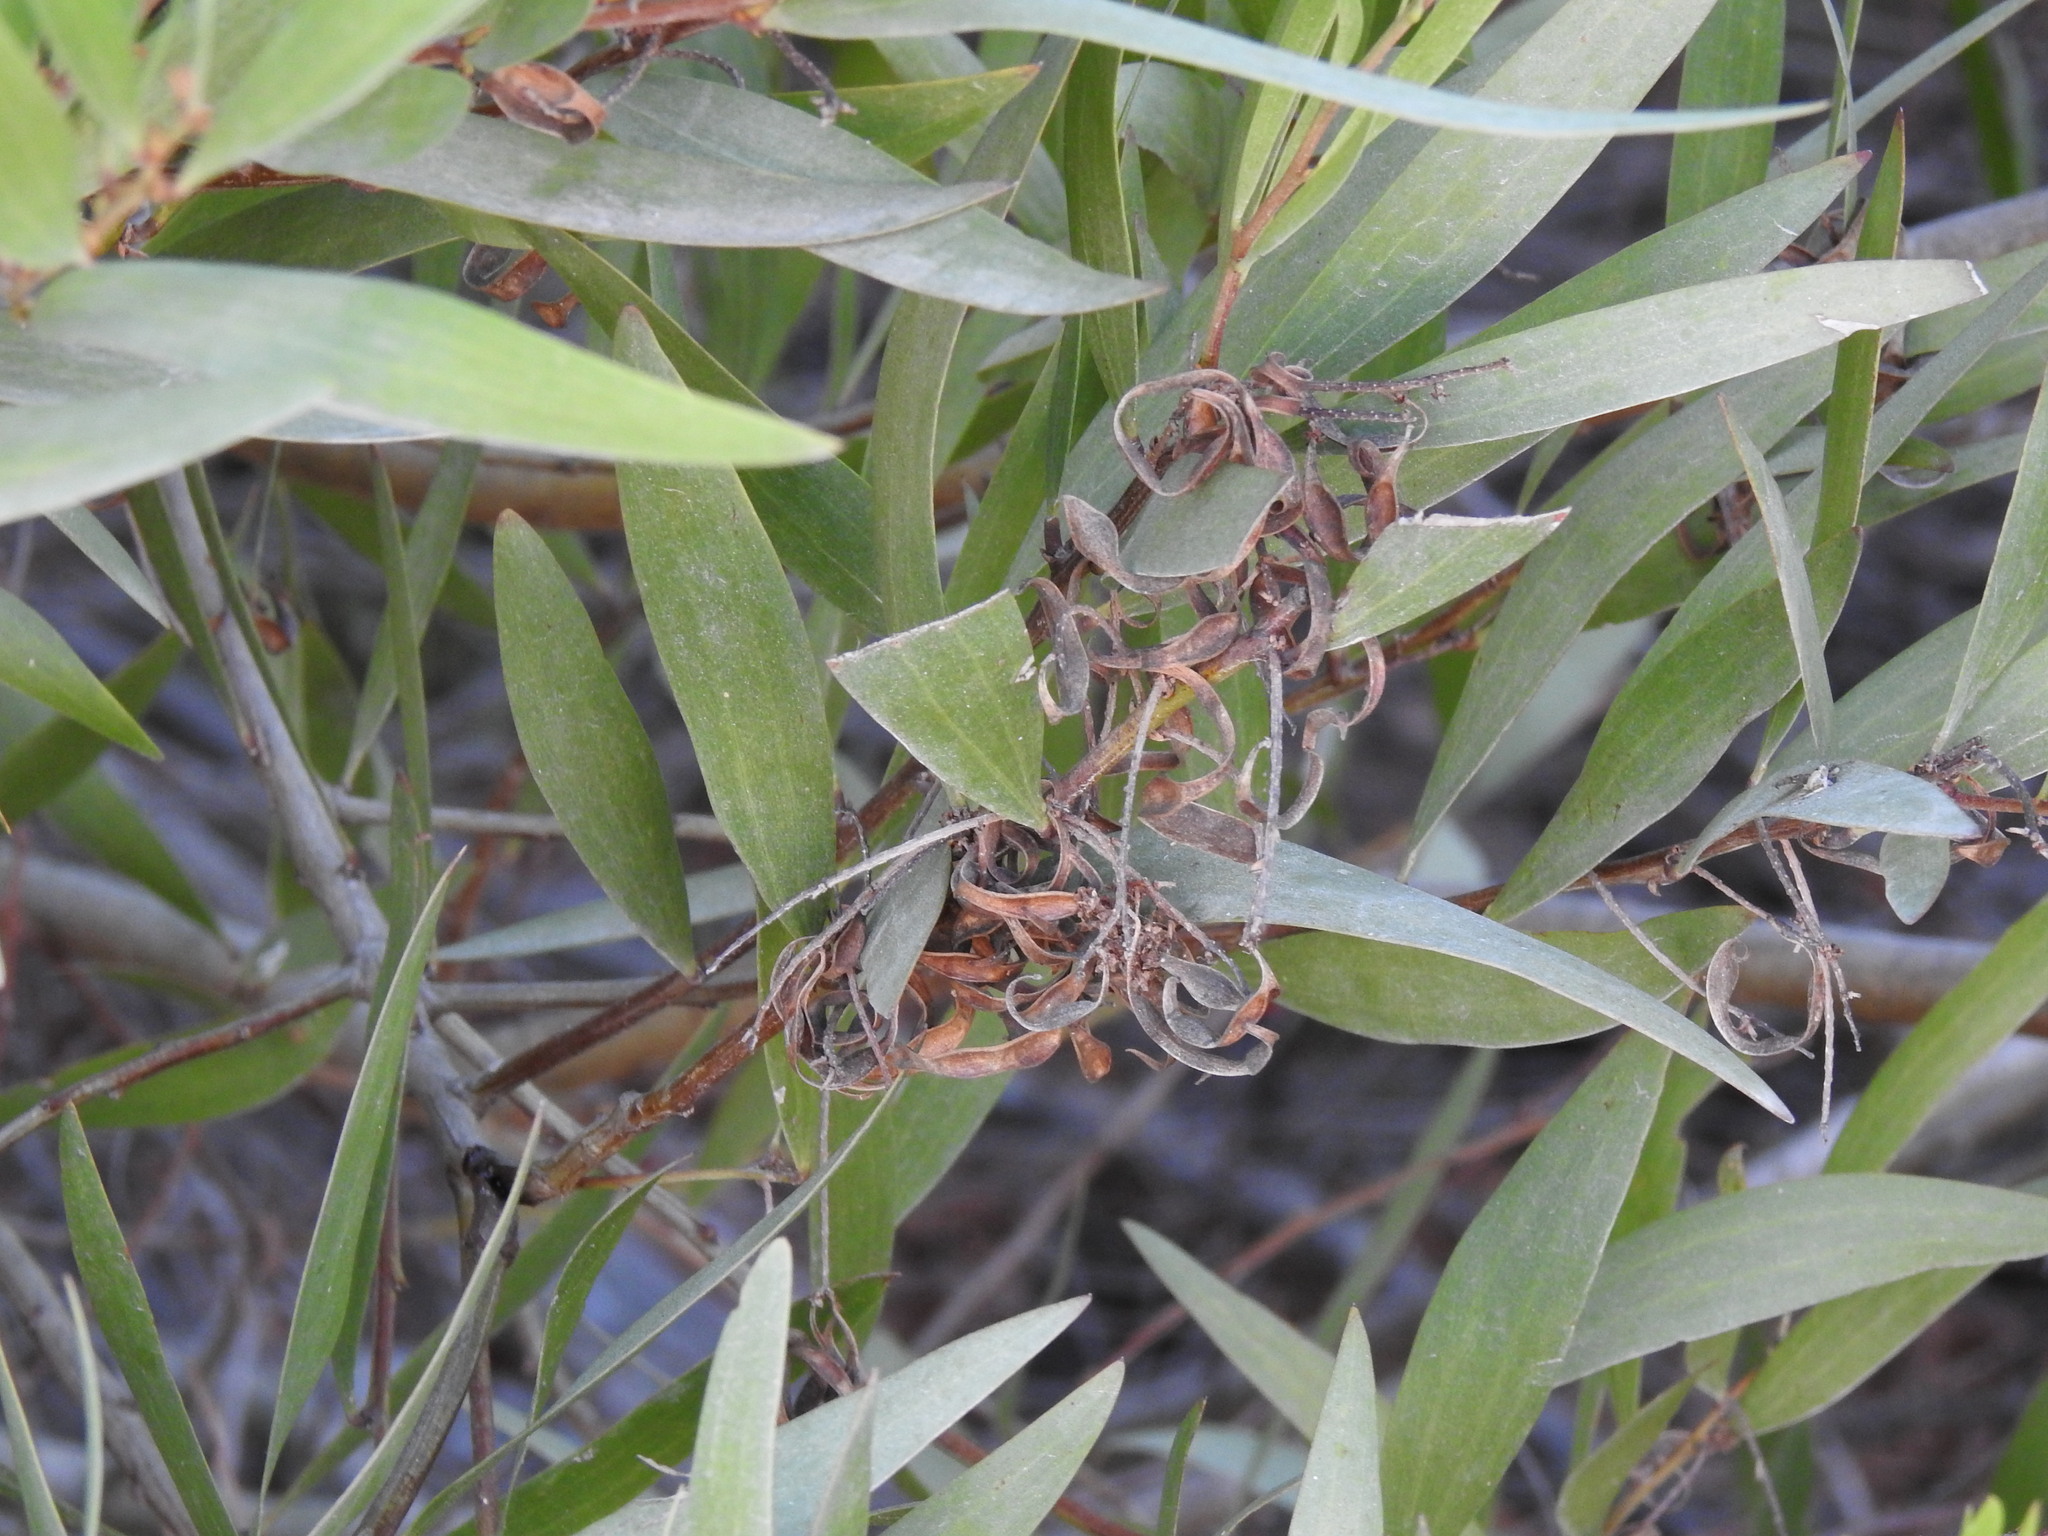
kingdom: Plantae
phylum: Tracheophyta
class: Magnoliopsida
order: Fabales
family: Fabaceae
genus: Acacia
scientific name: Acacia longifolia
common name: Sydney golden wattle
